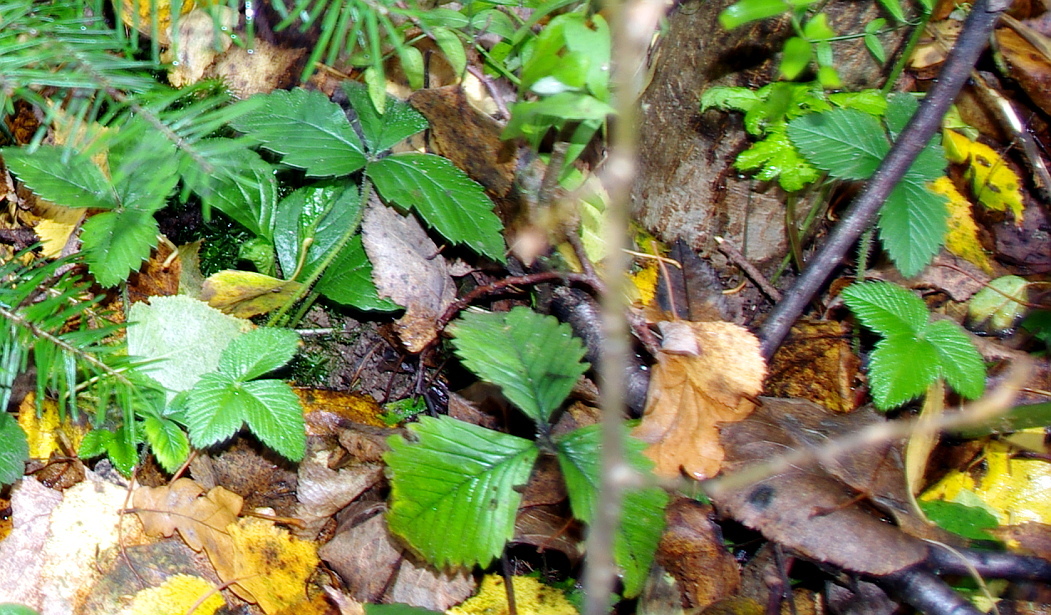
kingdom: Plantae
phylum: Tracheophyta
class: Magnoliopsida
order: Rosales
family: Rosaceae
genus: Fragaria
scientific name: Fragaria vesca
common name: Wild strawberry
